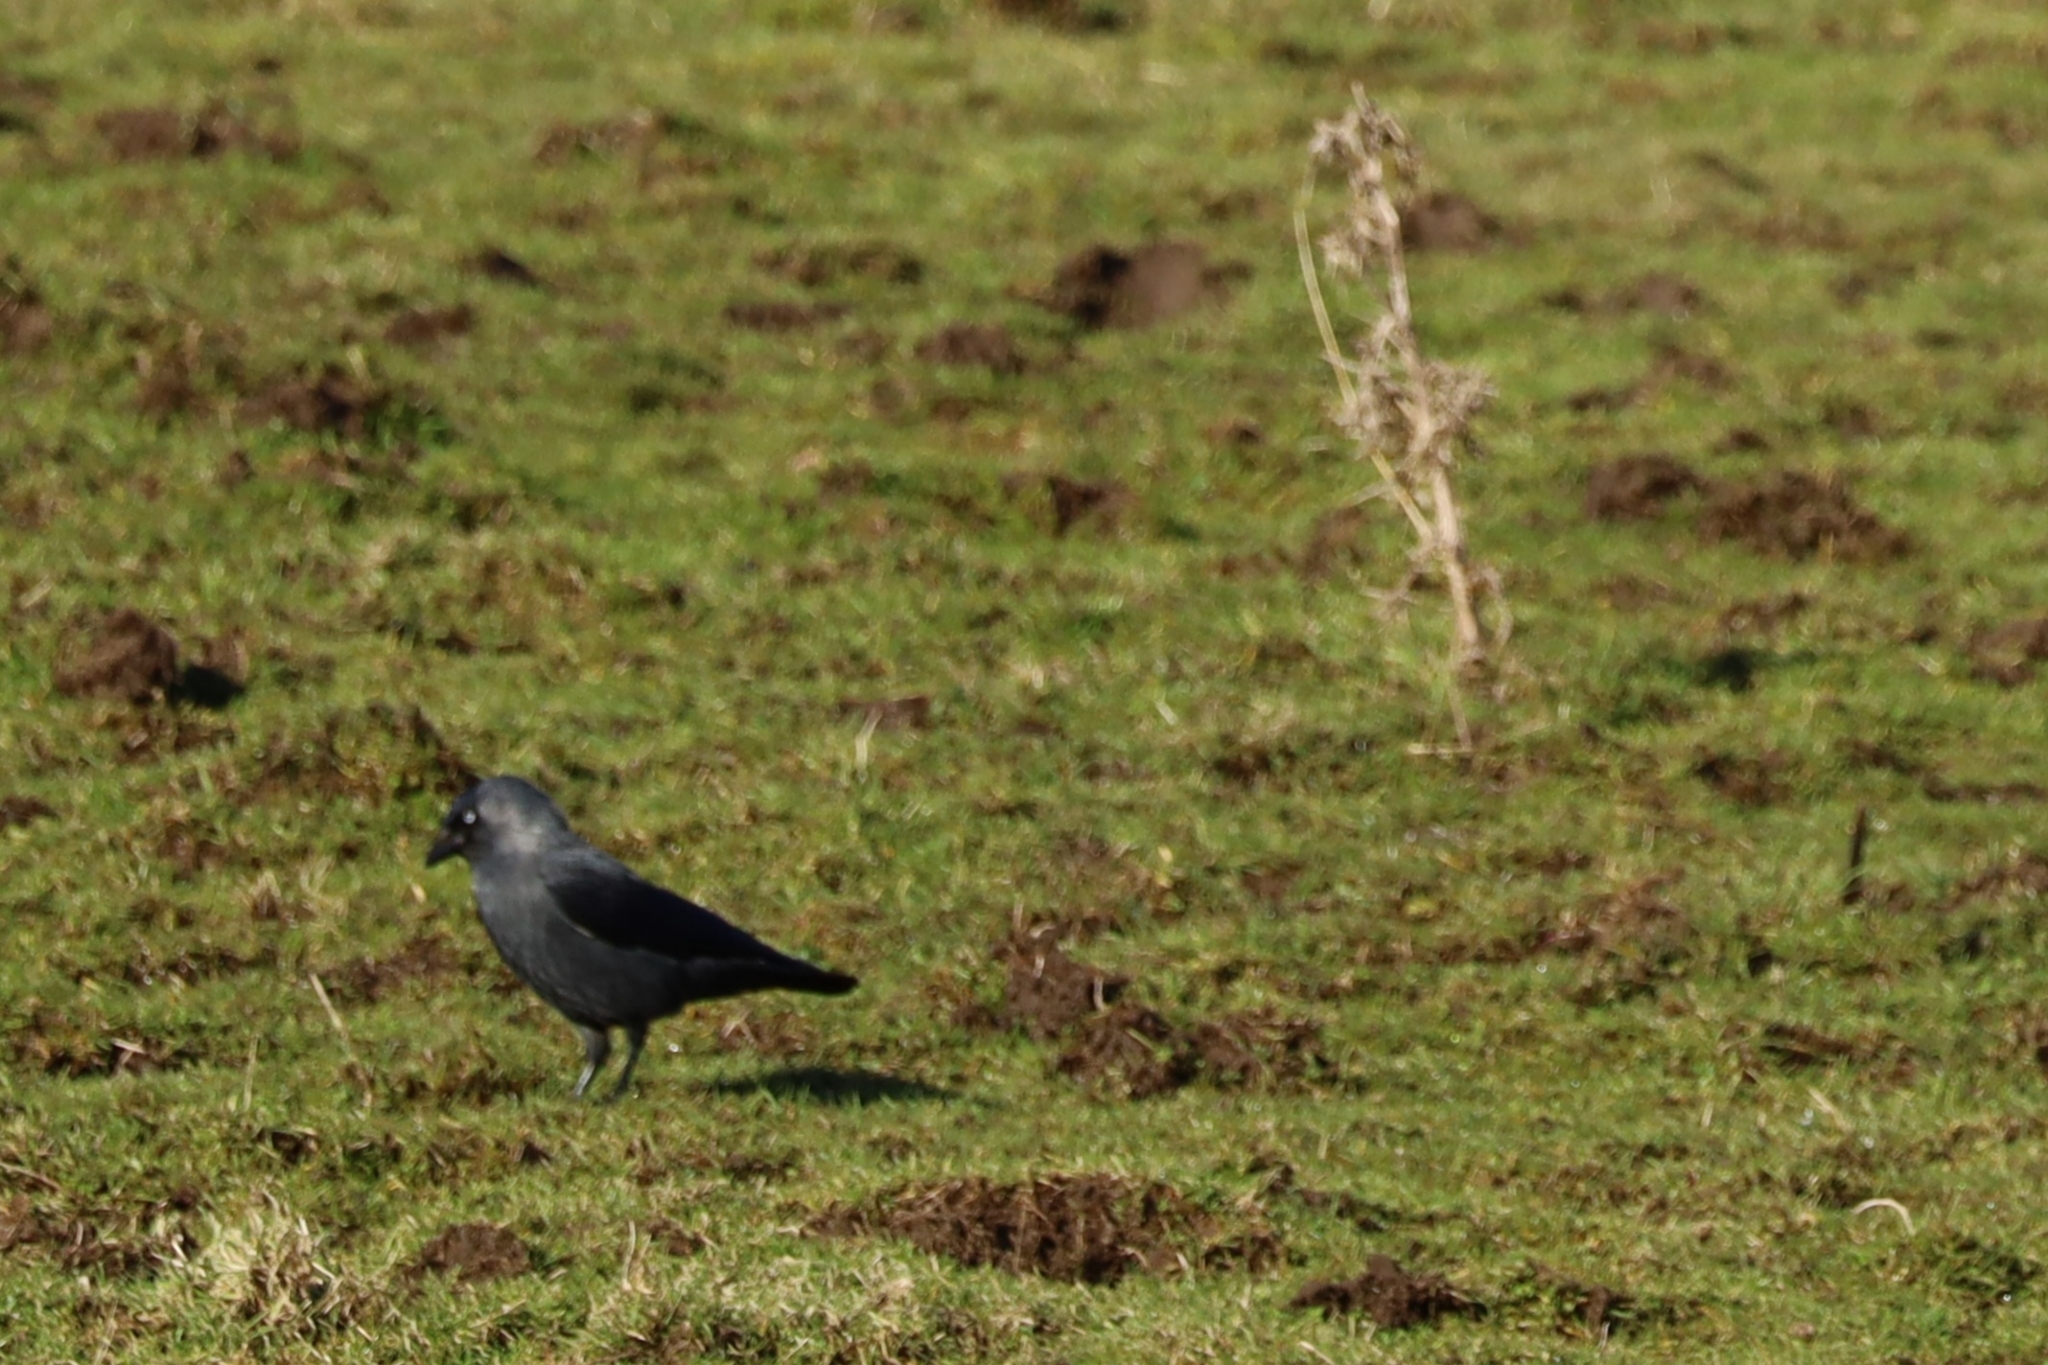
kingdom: Animalia
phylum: Chordata
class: Aves
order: Passeriformes
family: Corvidae
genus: Coloeus
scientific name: Coloeus monedula
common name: Western jackdaw
